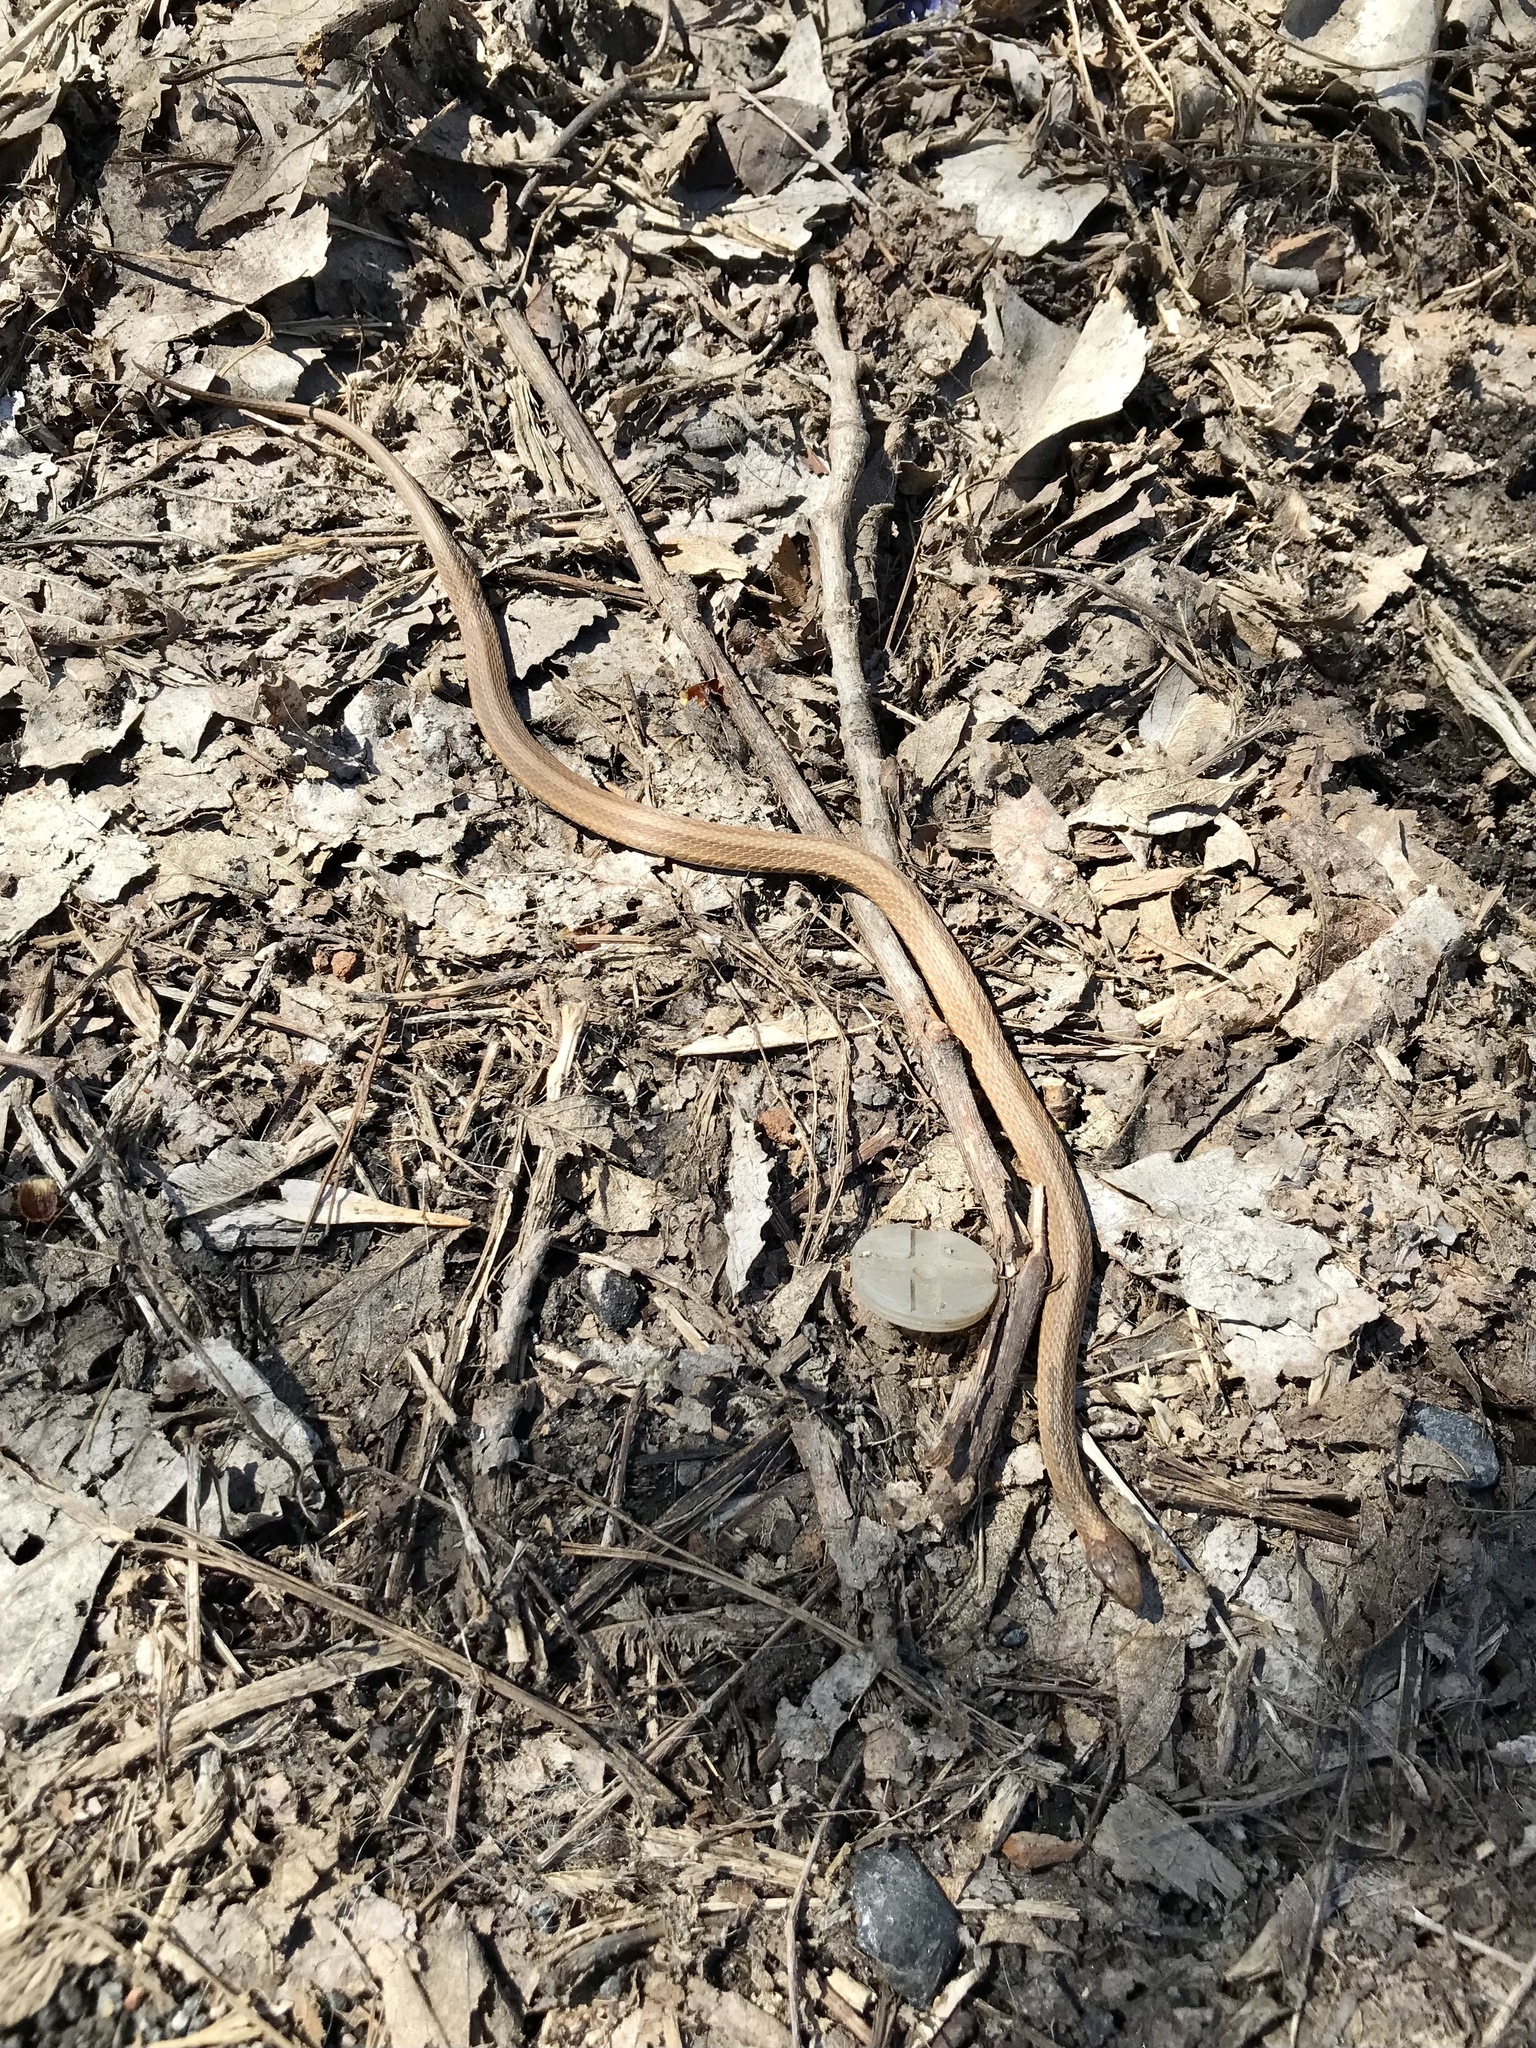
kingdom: Animalia
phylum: Chordata
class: Squamata
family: Colubridae
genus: Storeria
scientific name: Storeria occipitomaculata
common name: Redbelly snake
